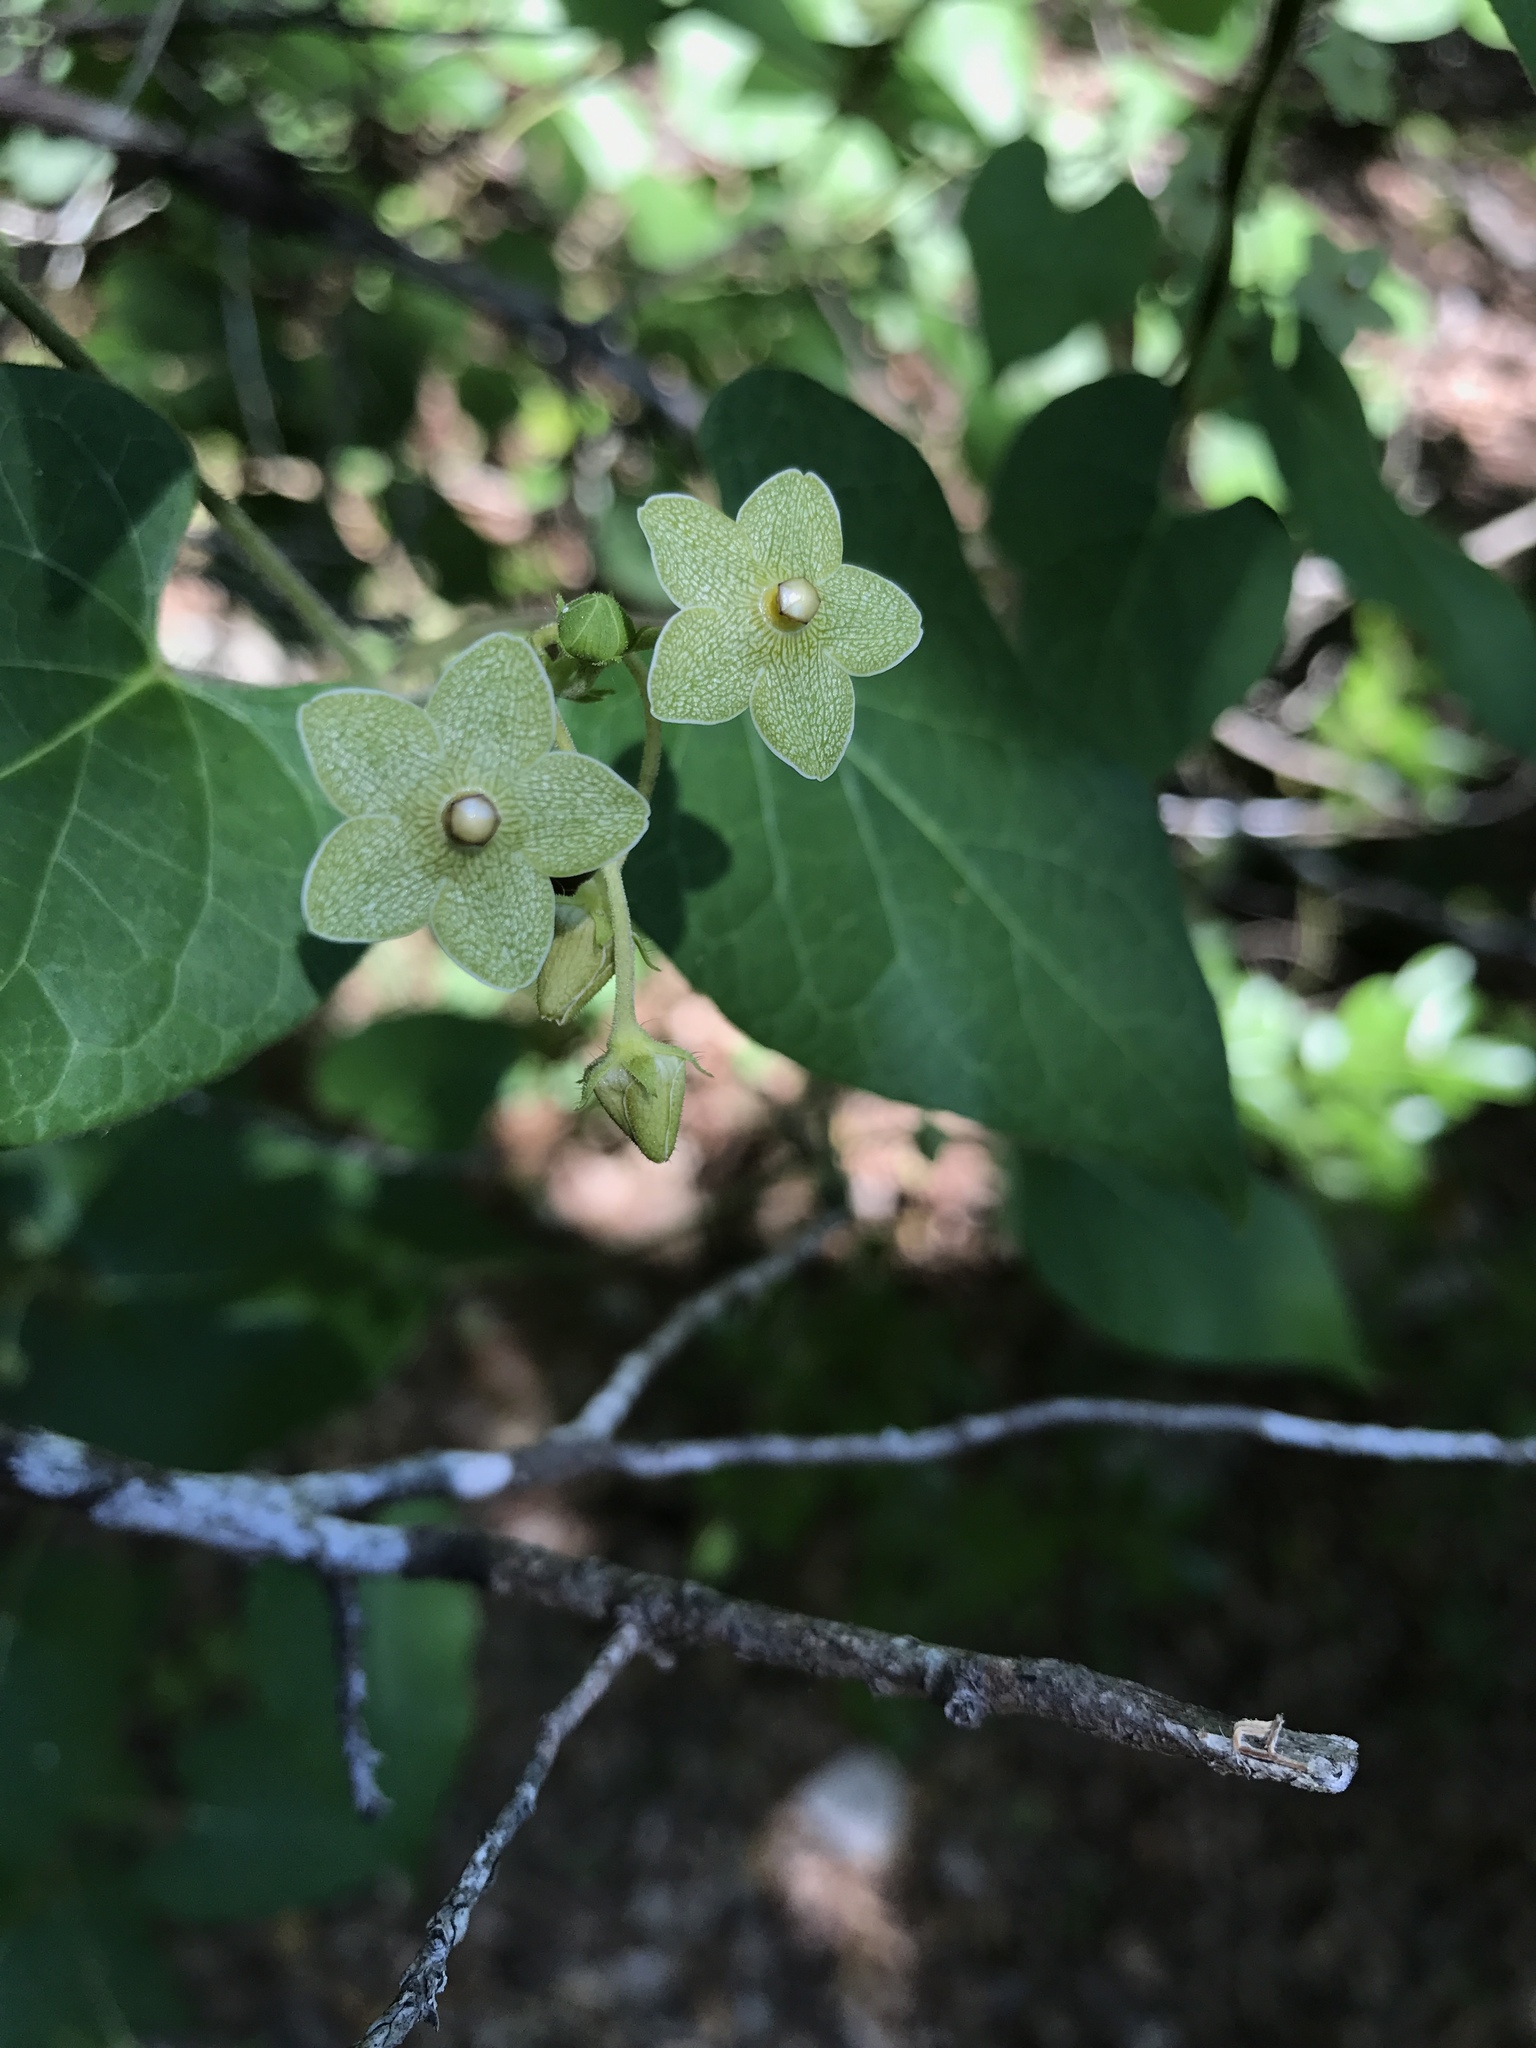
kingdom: Plantae
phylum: Tracheophyta
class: Magnoliopsida
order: Gentianales
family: Apocynaceae
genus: Dictyanthus
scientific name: Dictyanthus reticulatus
